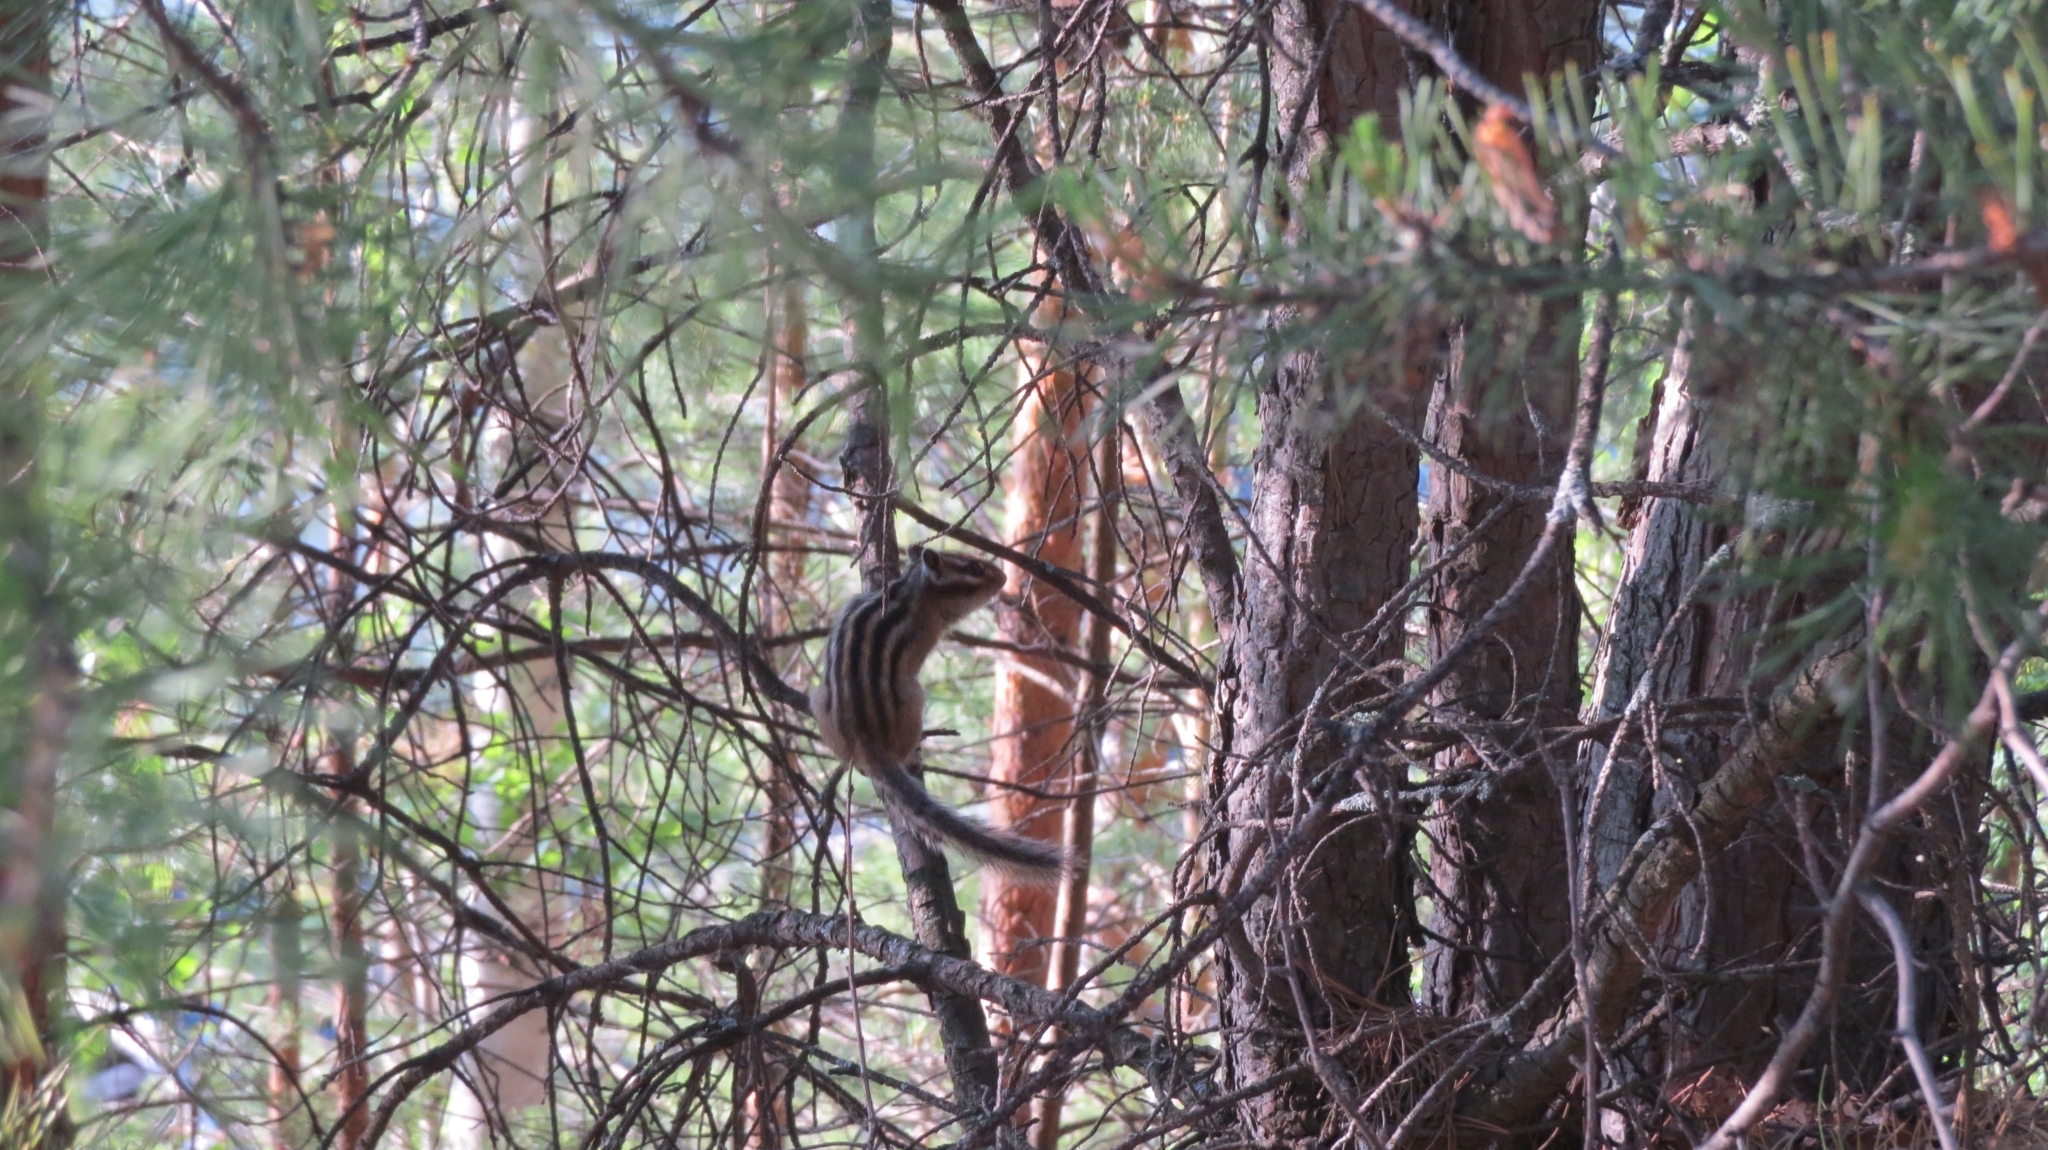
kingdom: Animalia
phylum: Chordata
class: Mammalia
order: Rodentia
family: Sciuridae
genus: Tamias
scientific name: Tamias sibiricus
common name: Siberian chipmunk
